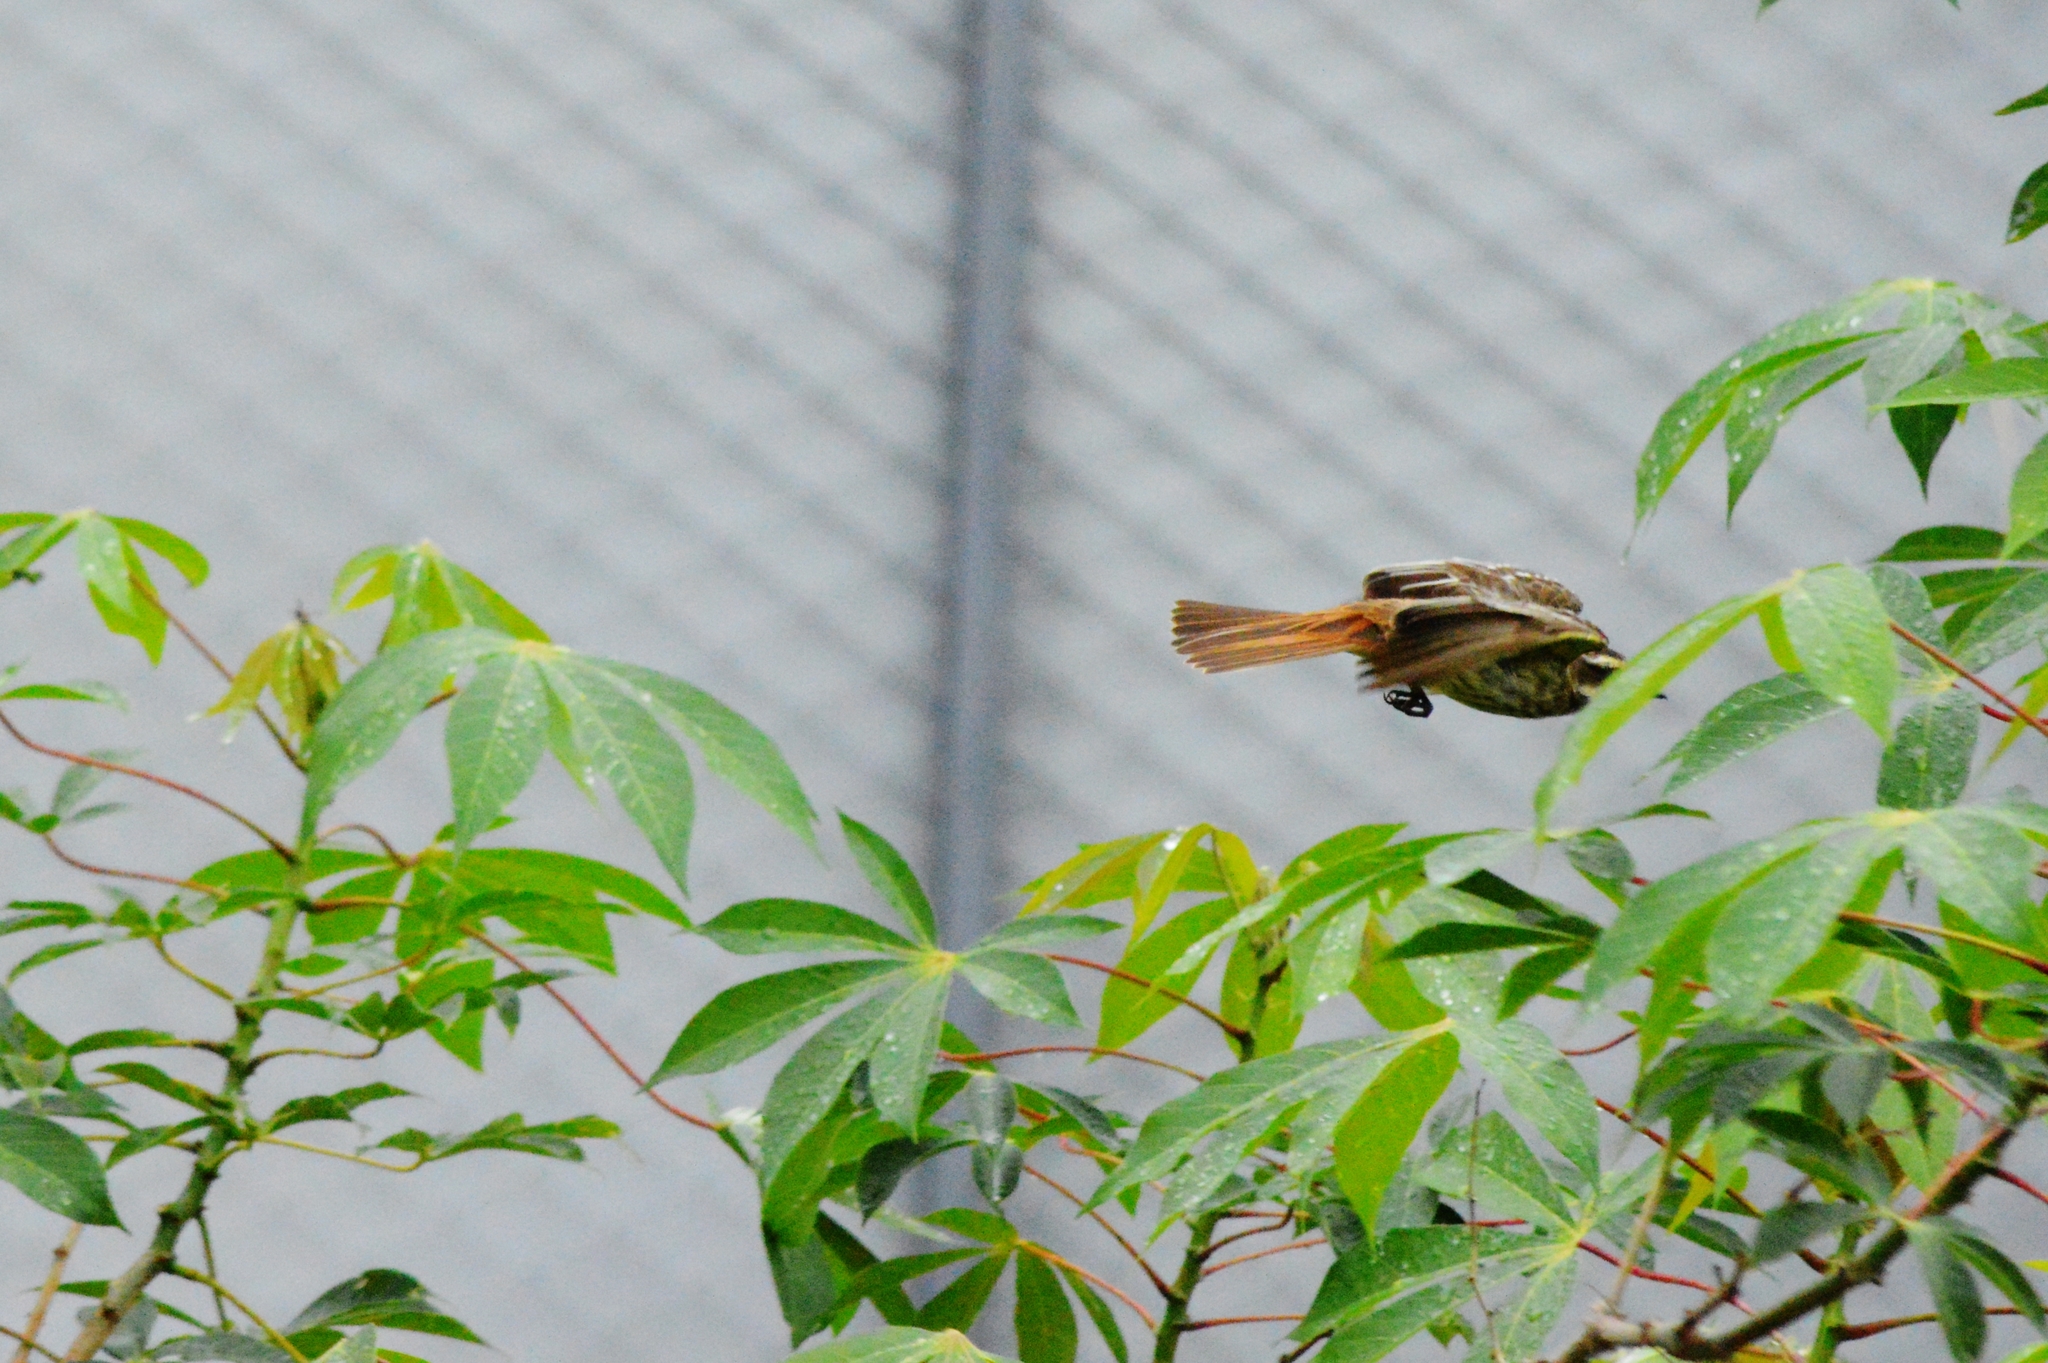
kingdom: Animalia
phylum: Chordata
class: Aves
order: Passeriformes
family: Tyrannidae
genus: Empidonomus
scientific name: Empidonomus varius
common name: Variegated flycatcher
